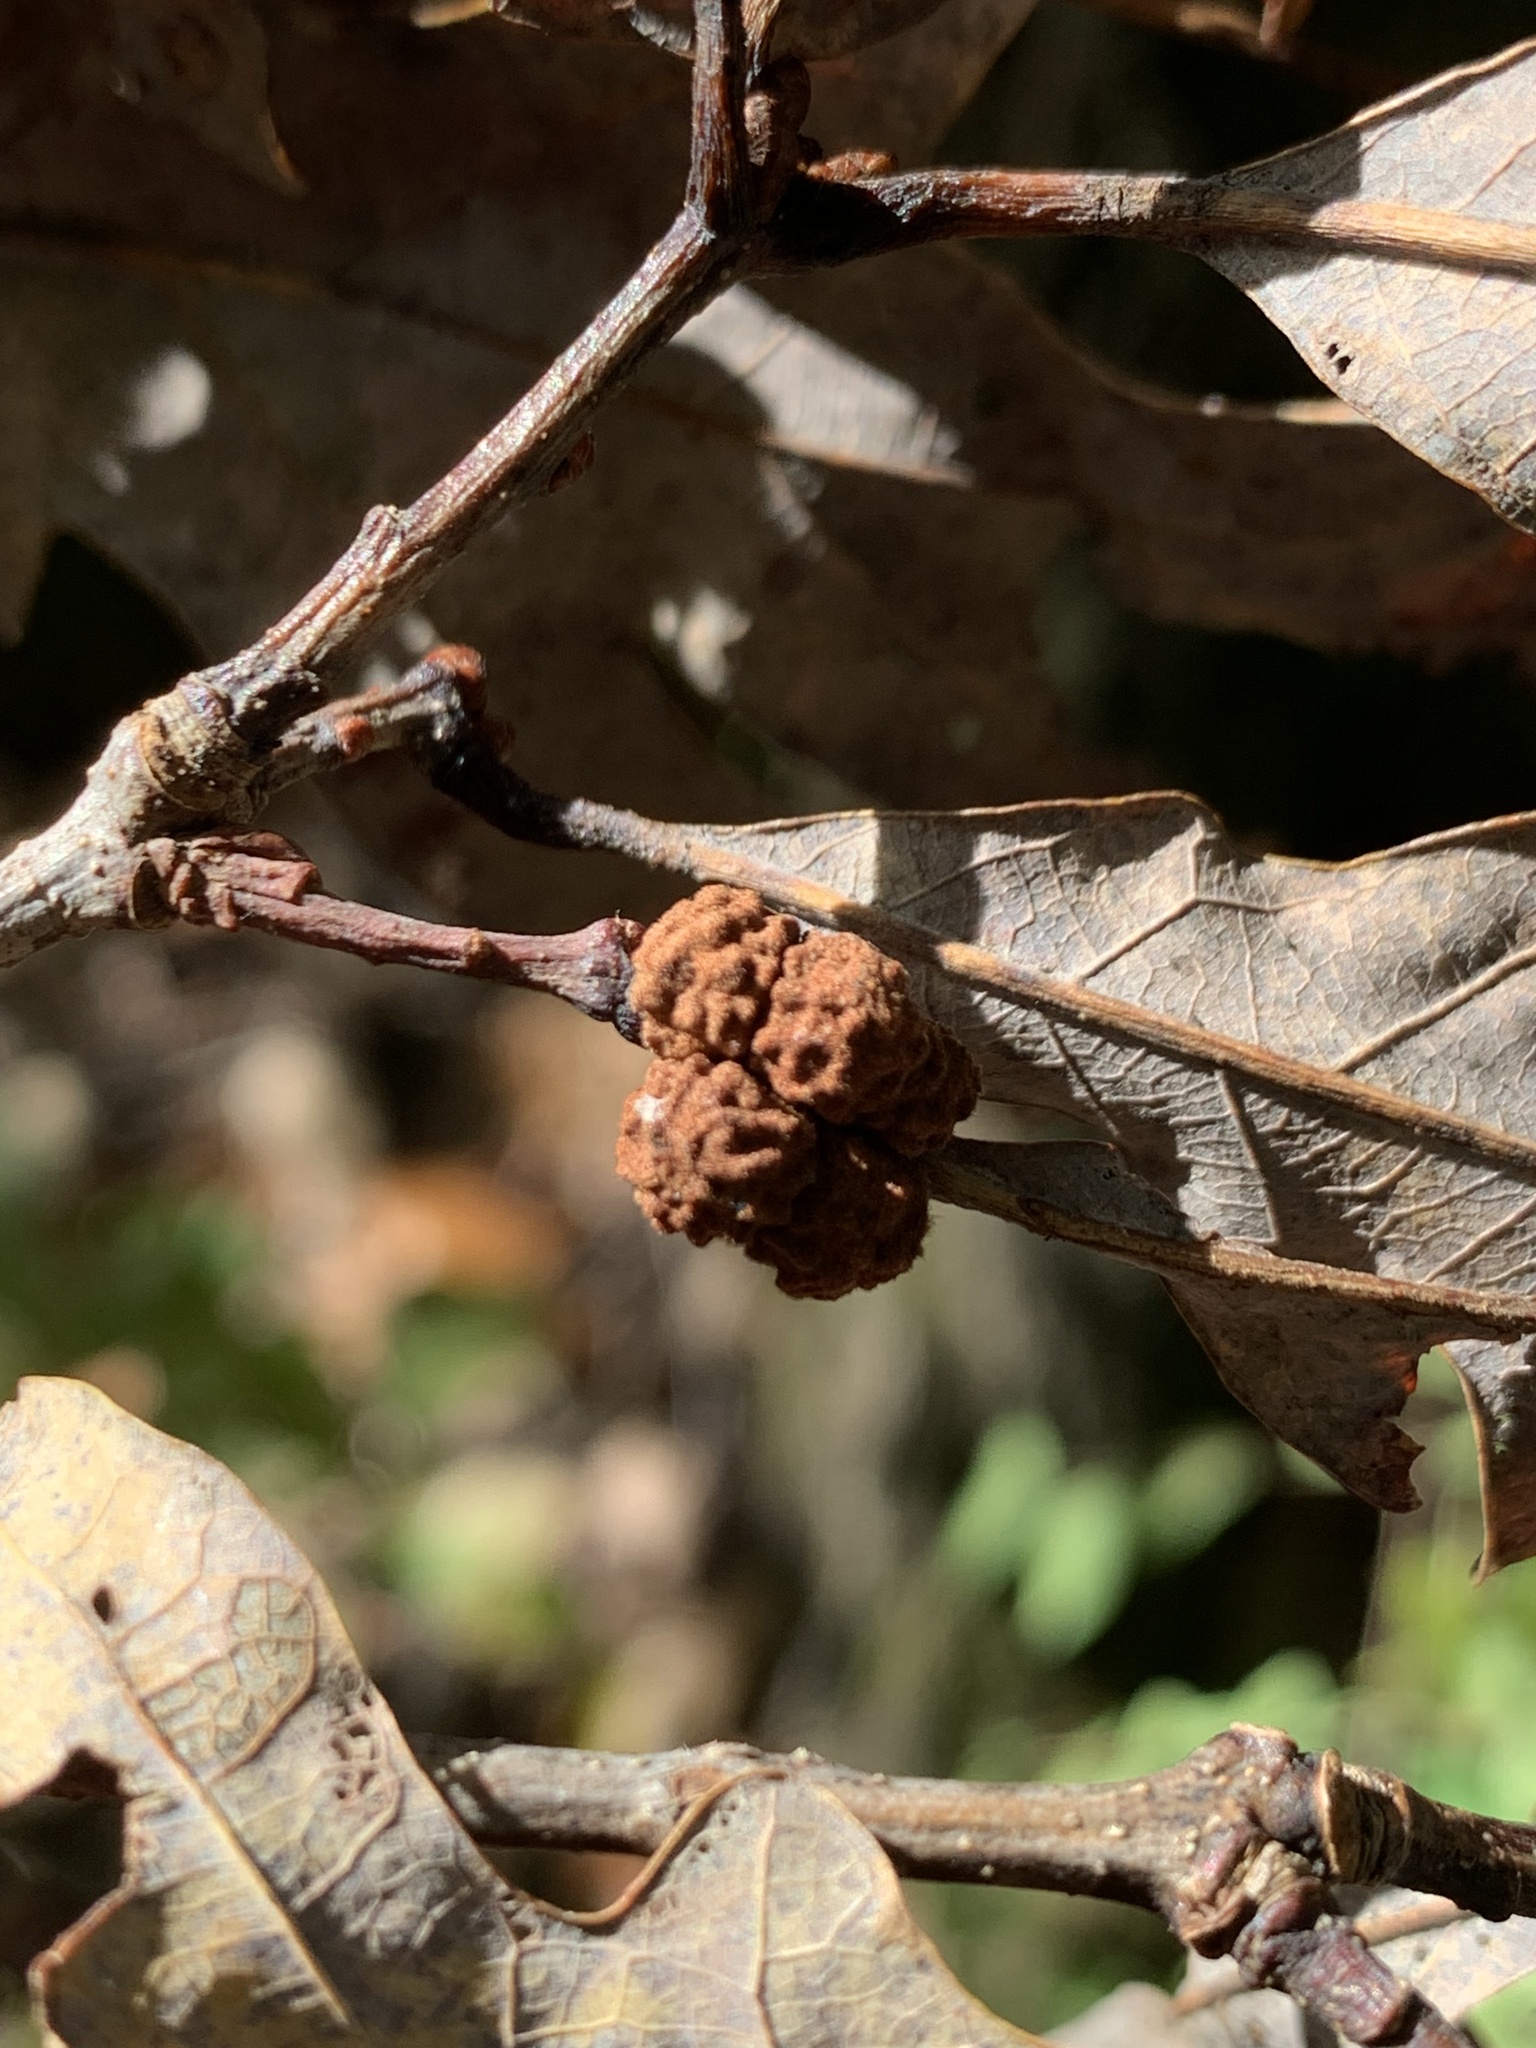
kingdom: Animalia
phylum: Arthropoda
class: Insecta
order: Hymenoptera
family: Cynipidae
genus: Andricus
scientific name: Andricus
